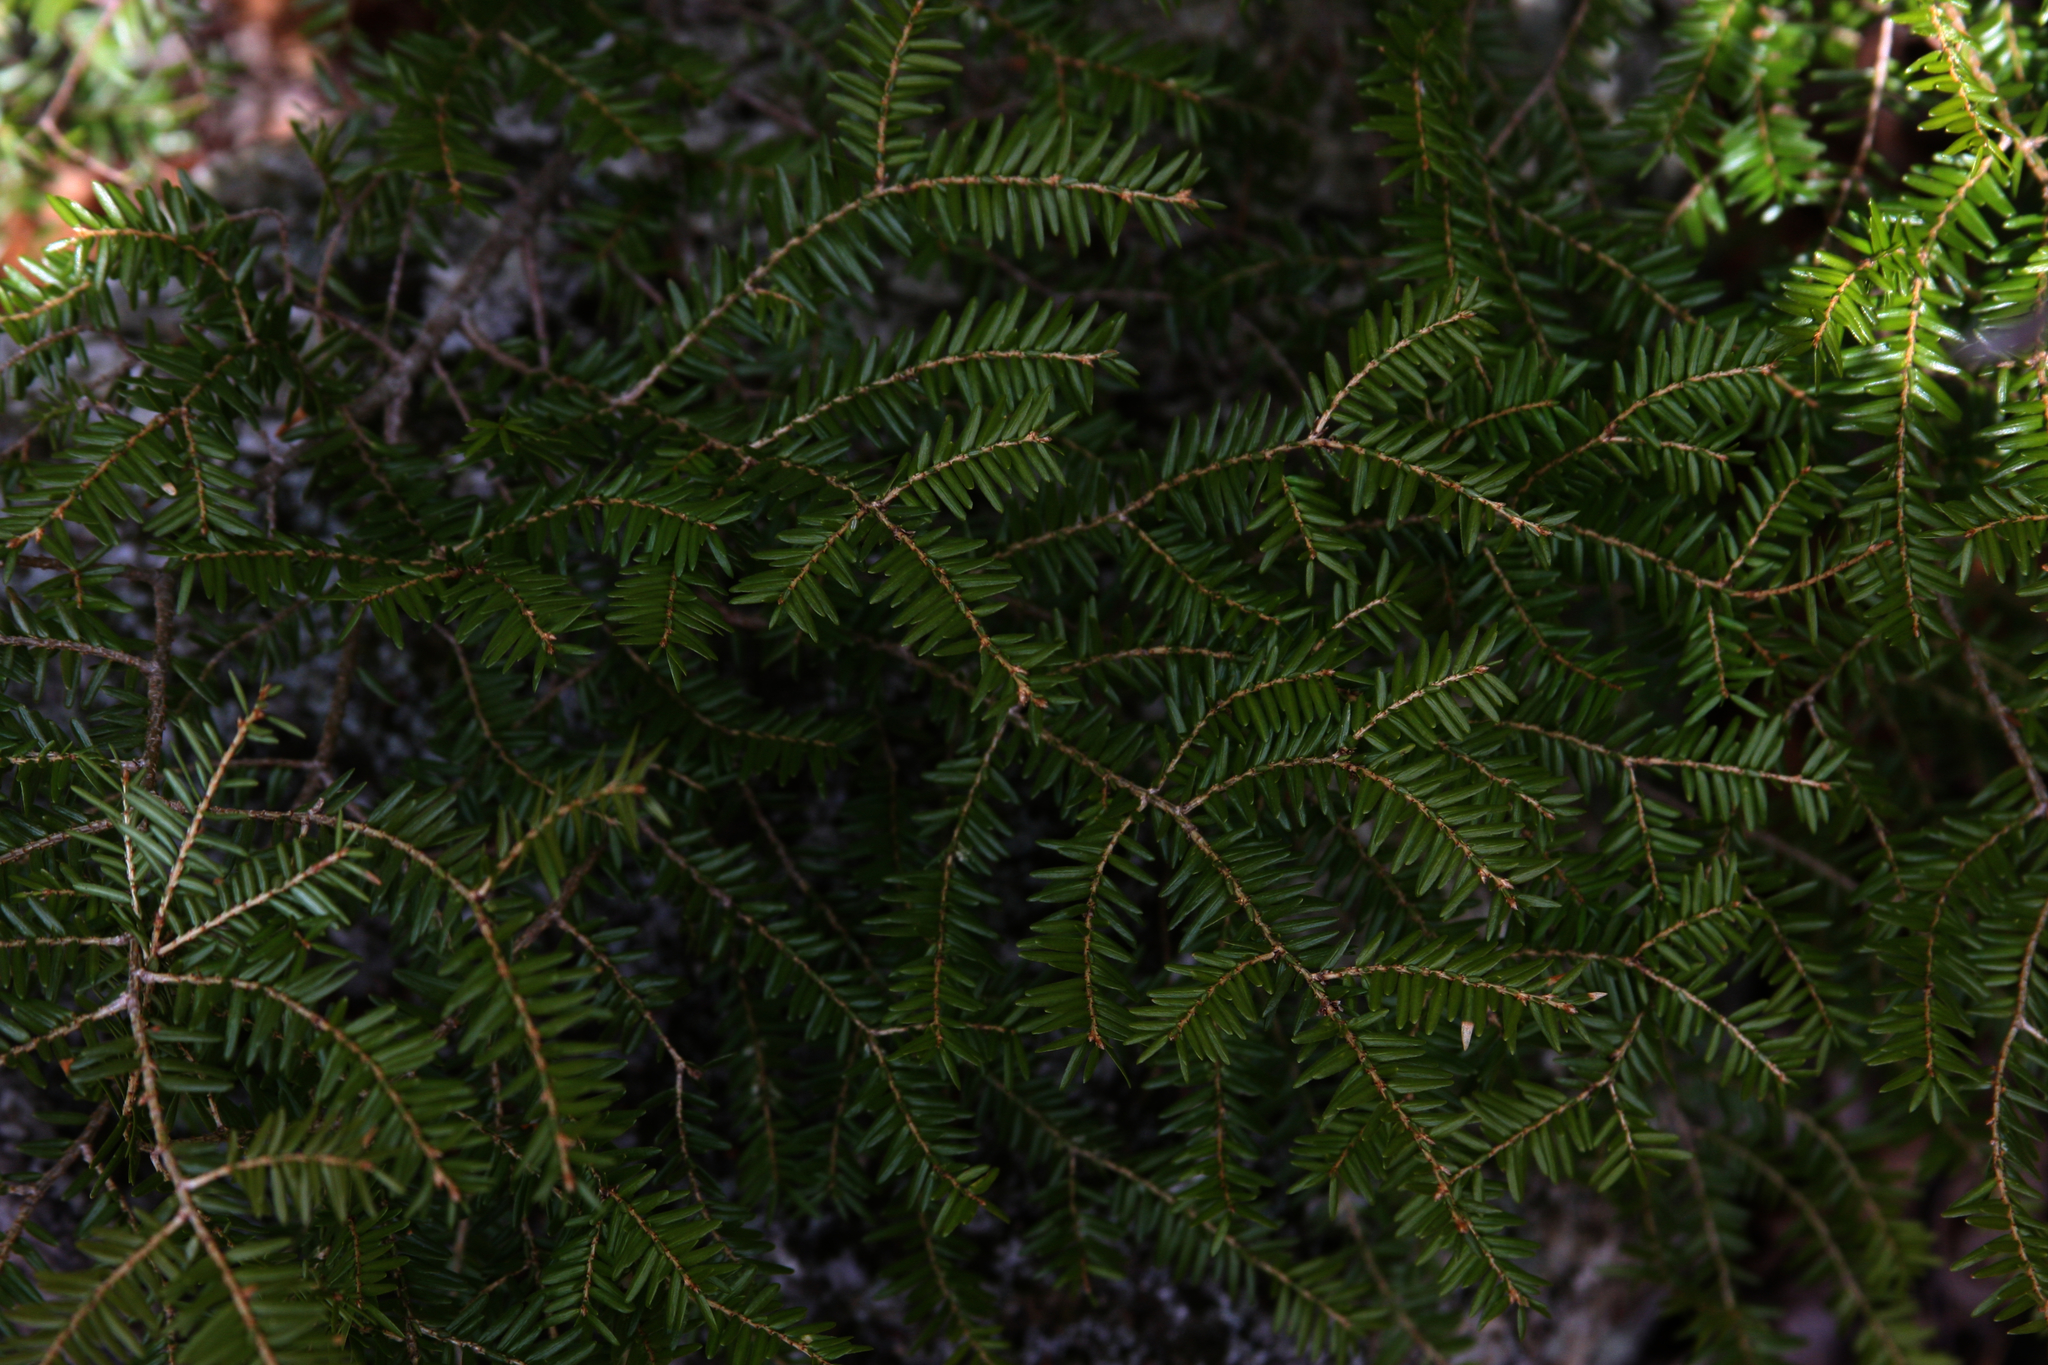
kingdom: Plantae
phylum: Tracheophyta
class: Pinopsida
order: Pinales
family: Pinaceae
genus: Tsuga
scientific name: Tsuga canadensis
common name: Eastern hemlock
